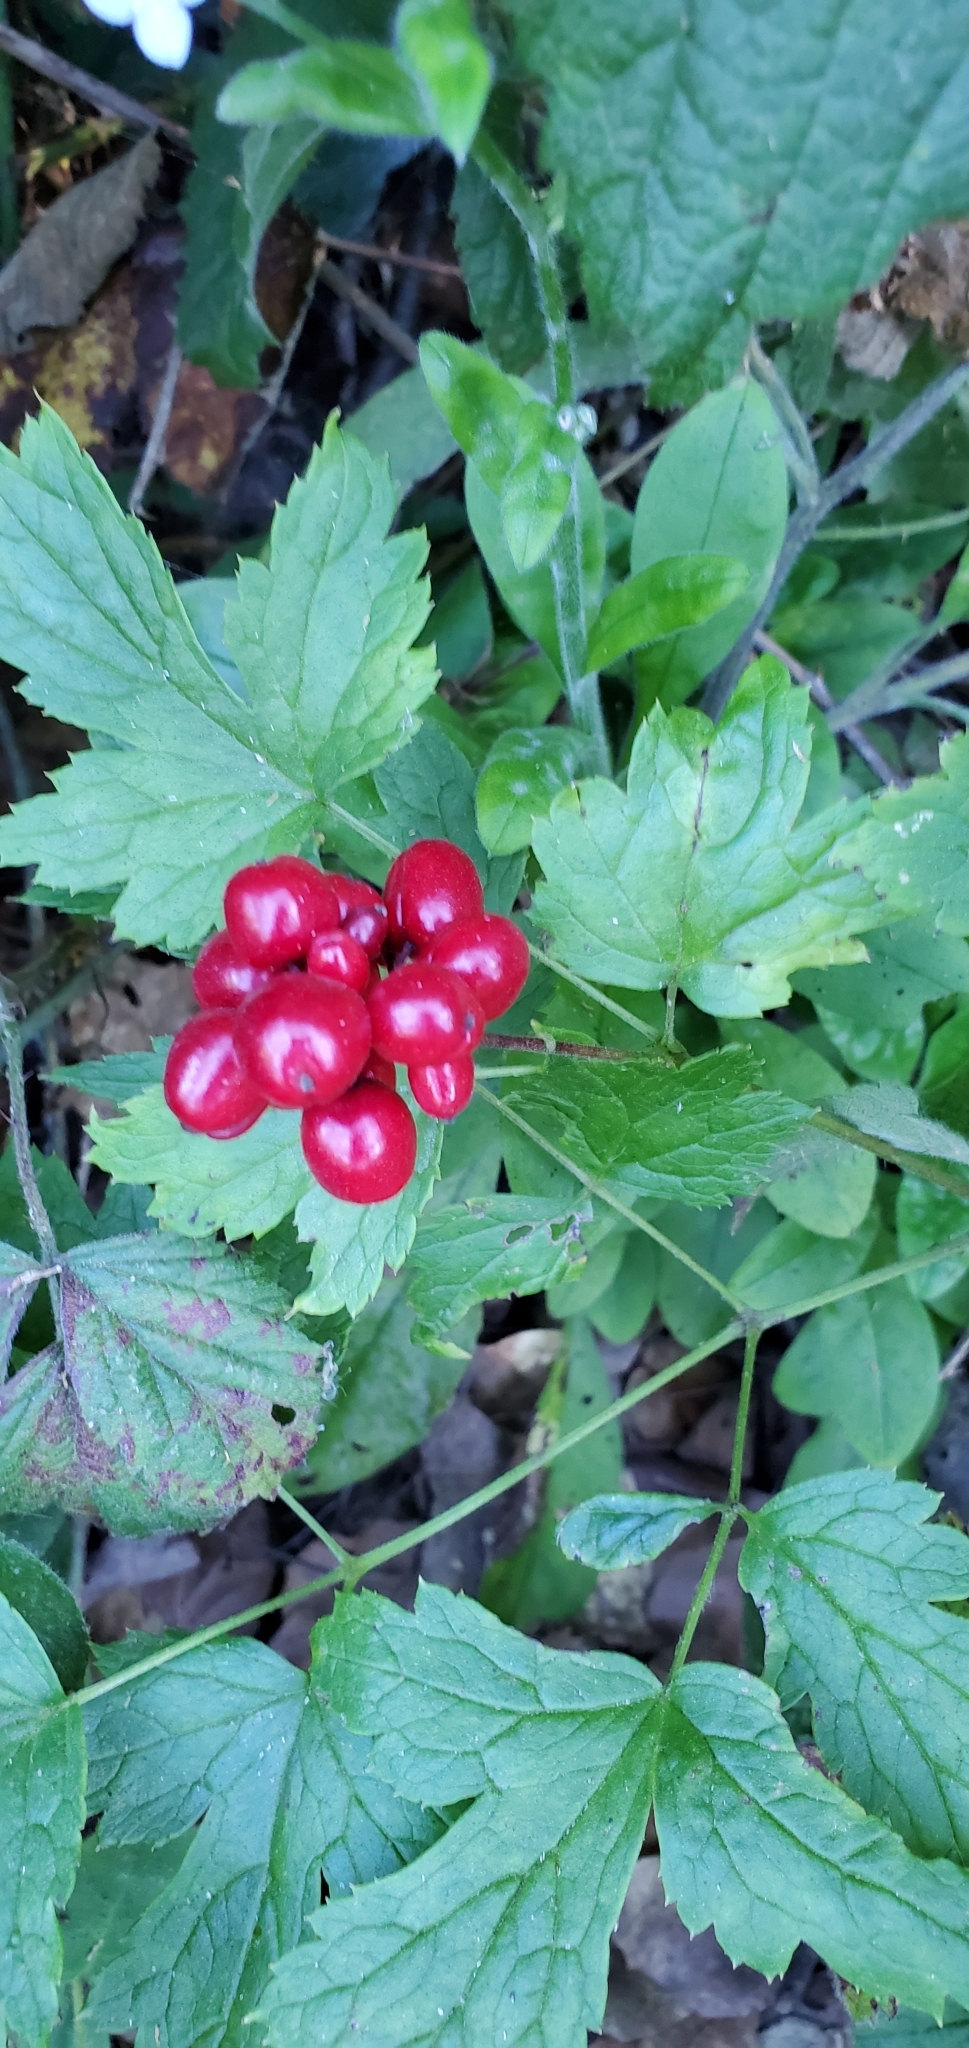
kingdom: Plantae
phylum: Tracheophyta
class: Magnoliopsida
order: Ranunculales
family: Ranunculaceae
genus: Actaea
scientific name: Actaea rubra
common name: Red baneberry
